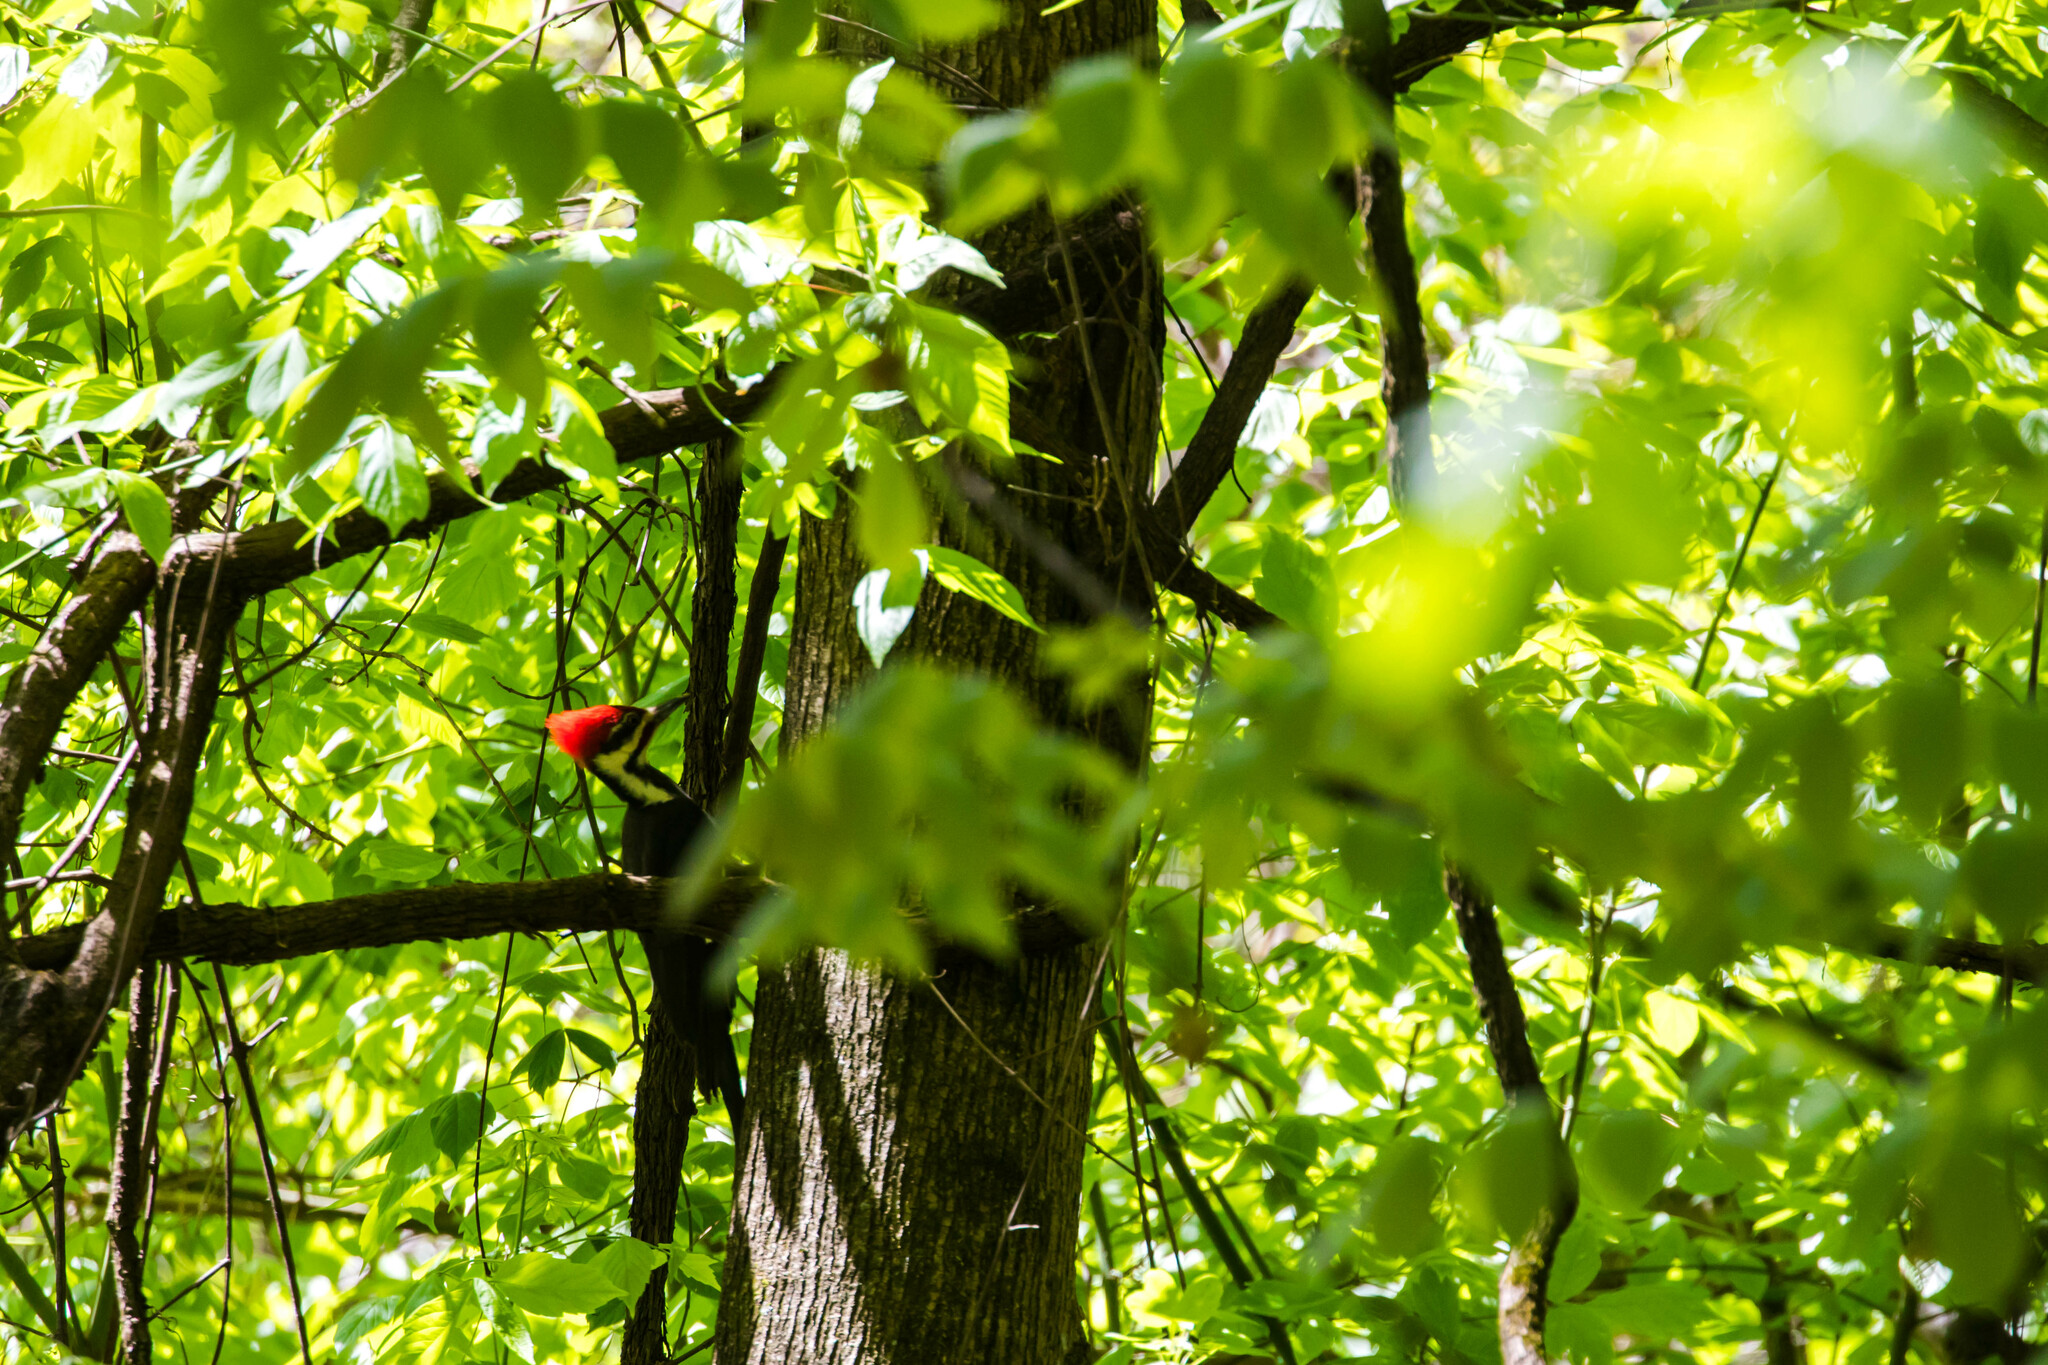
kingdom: Animalia
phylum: Chordata
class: Aves
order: Piciformes
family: Picidae
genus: Dryocopus
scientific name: Dryocopus pileatus
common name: Pileated woodpecker
